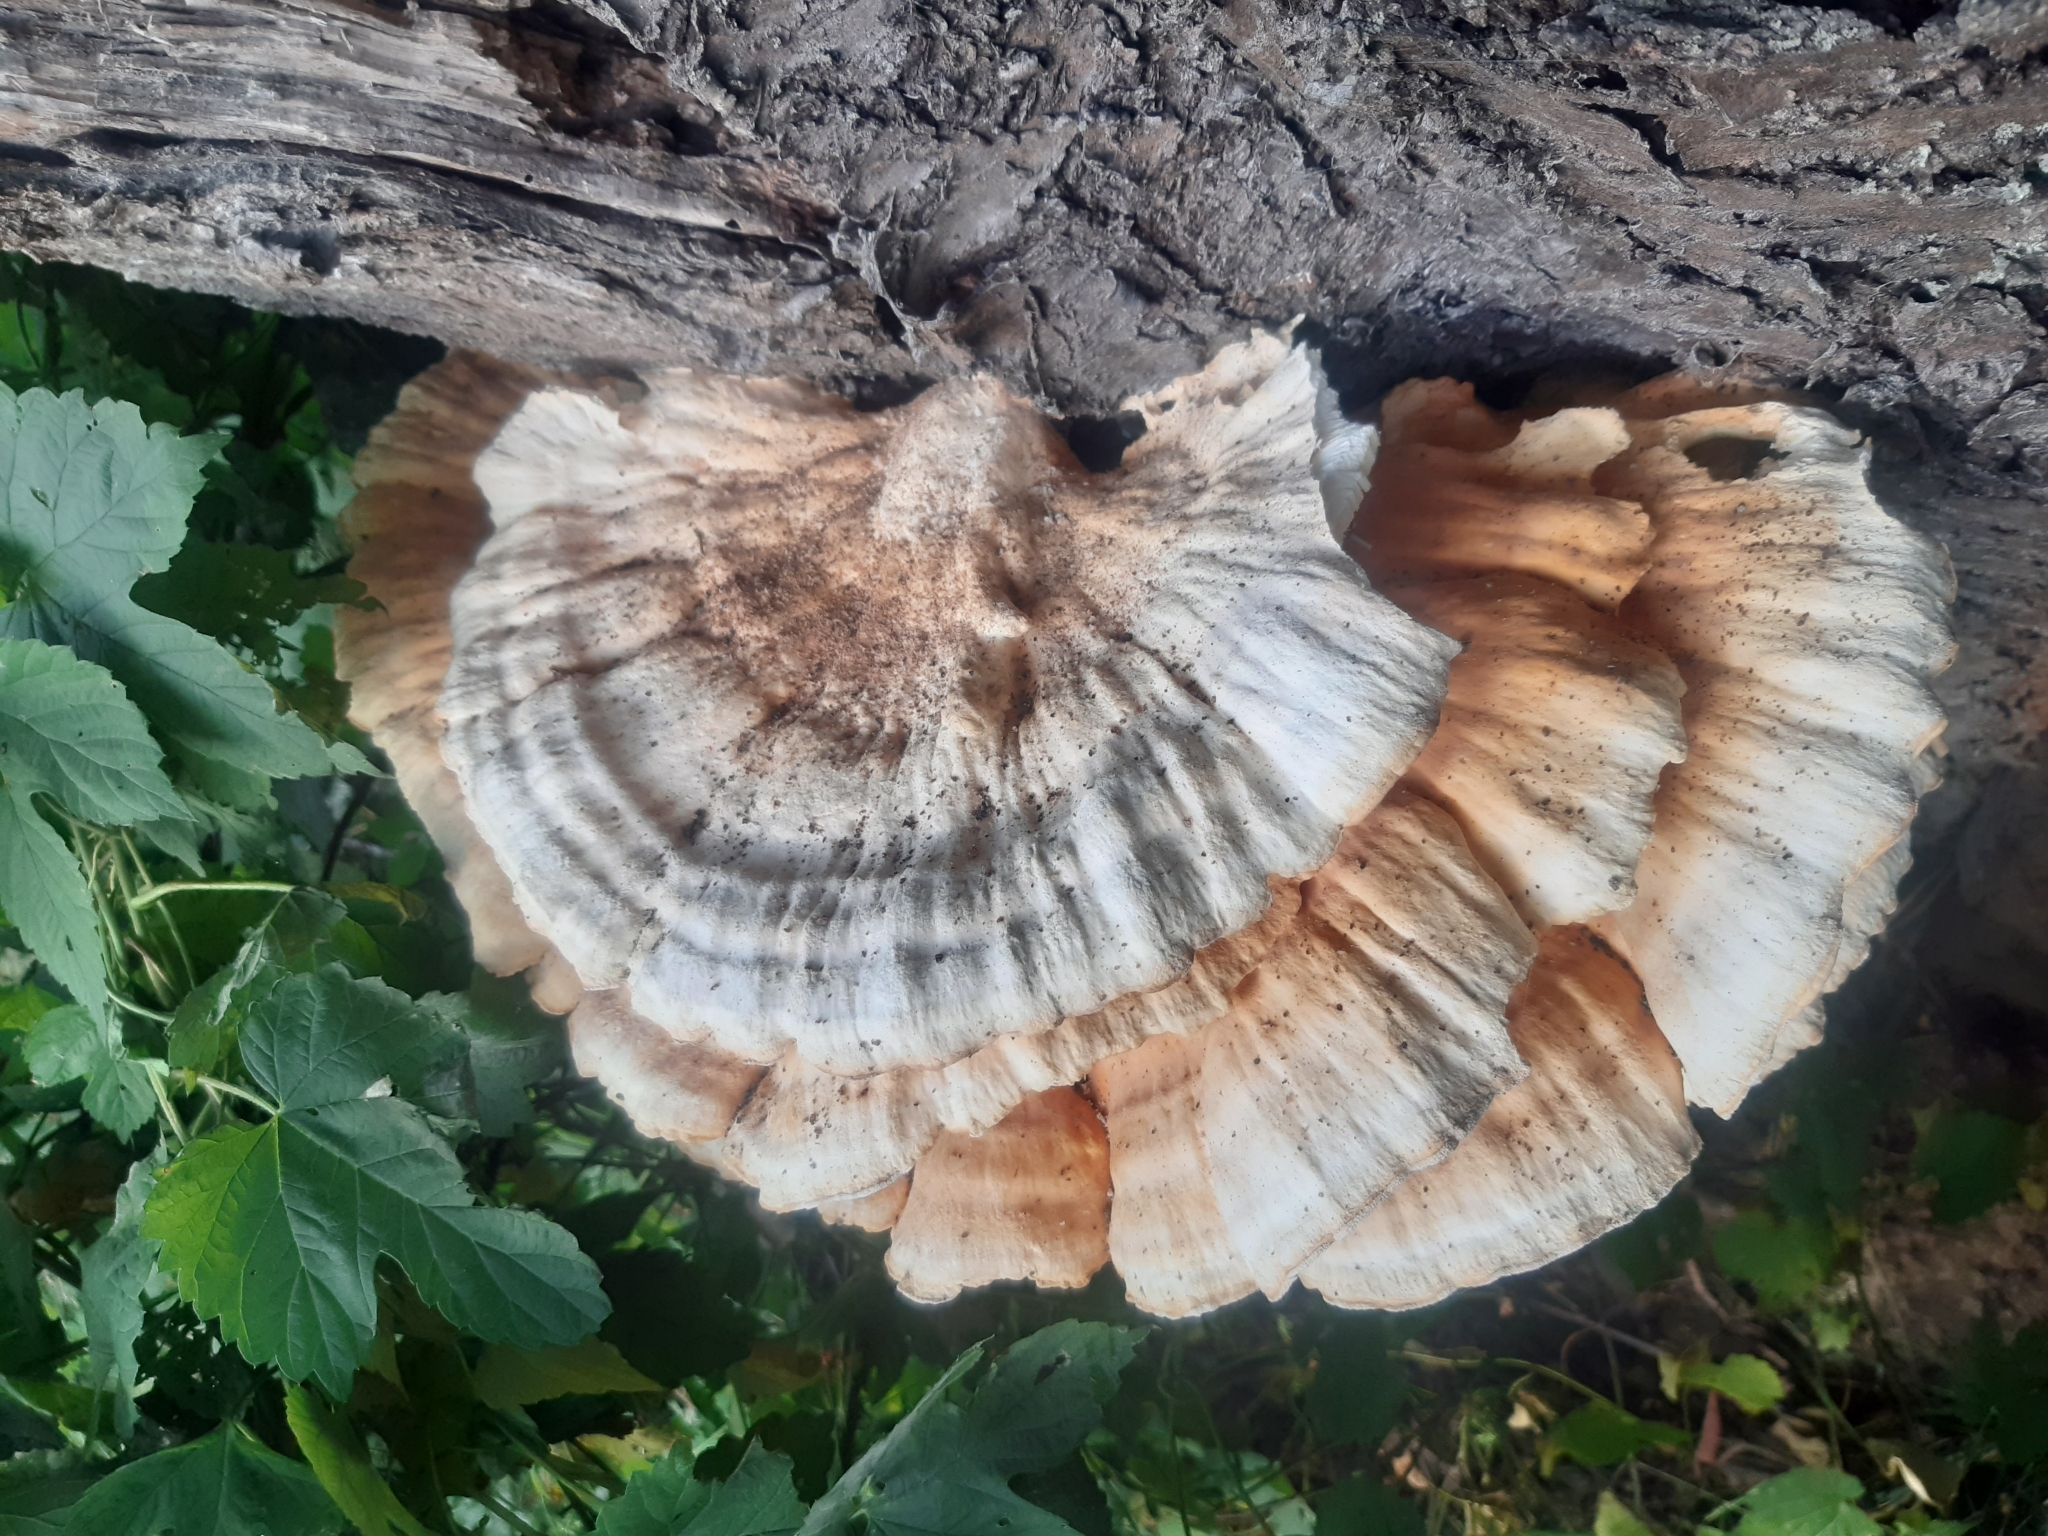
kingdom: Fungi
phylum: Basidiomycota
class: Agaricomycetes
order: Polyporales
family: Laetiporaceae
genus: Laetiporus
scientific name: Laetiporus sulphureus
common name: Chicken of the woods
